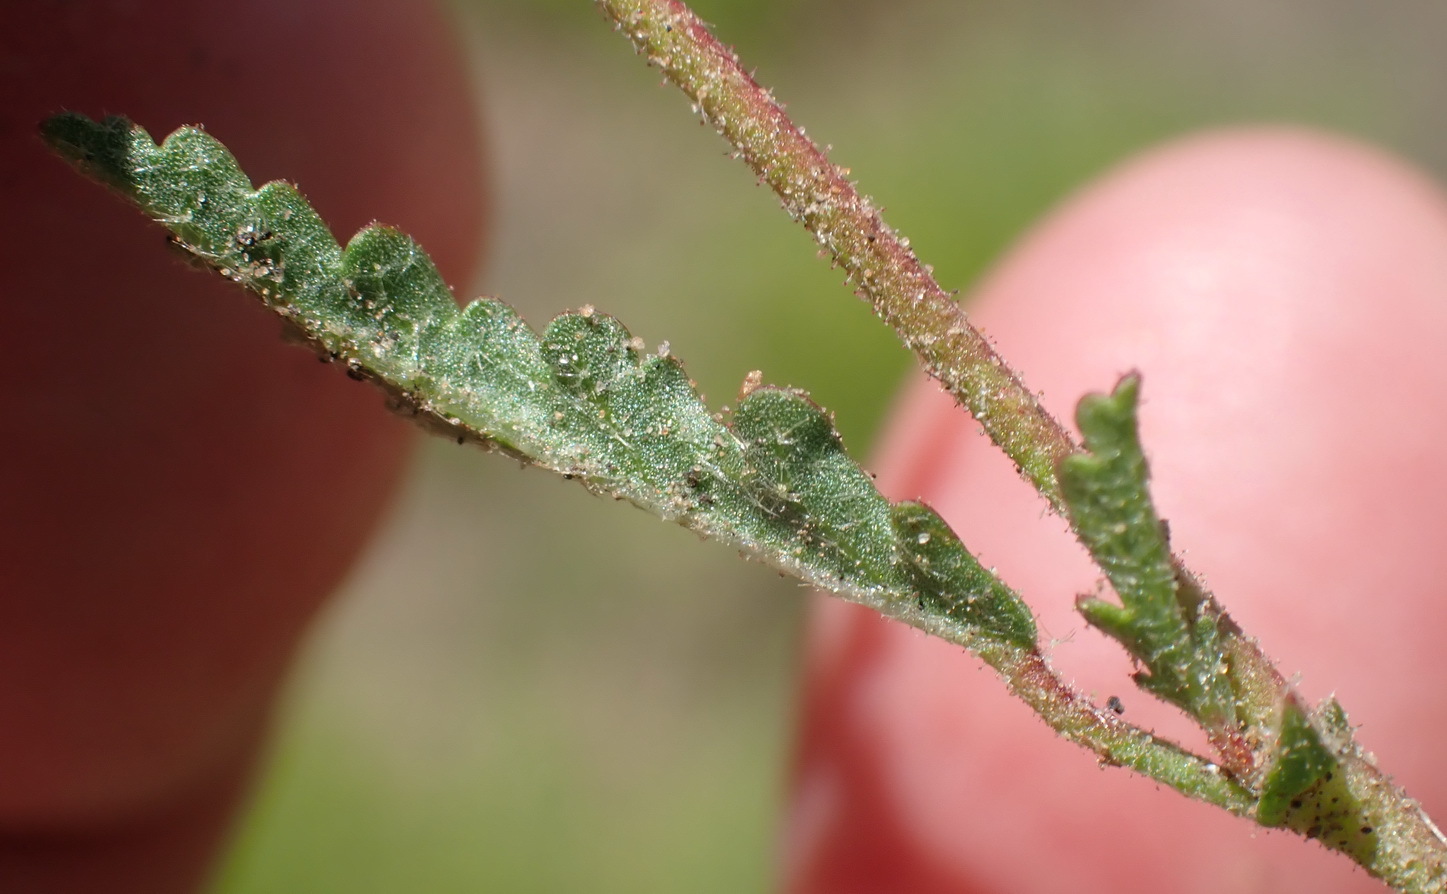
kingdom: Plantae
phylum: Tracheophyta
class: Magnoliopsida
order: Malvales
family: Malvaceae
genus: Hermannia
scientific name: Hermannia coccocarpa
